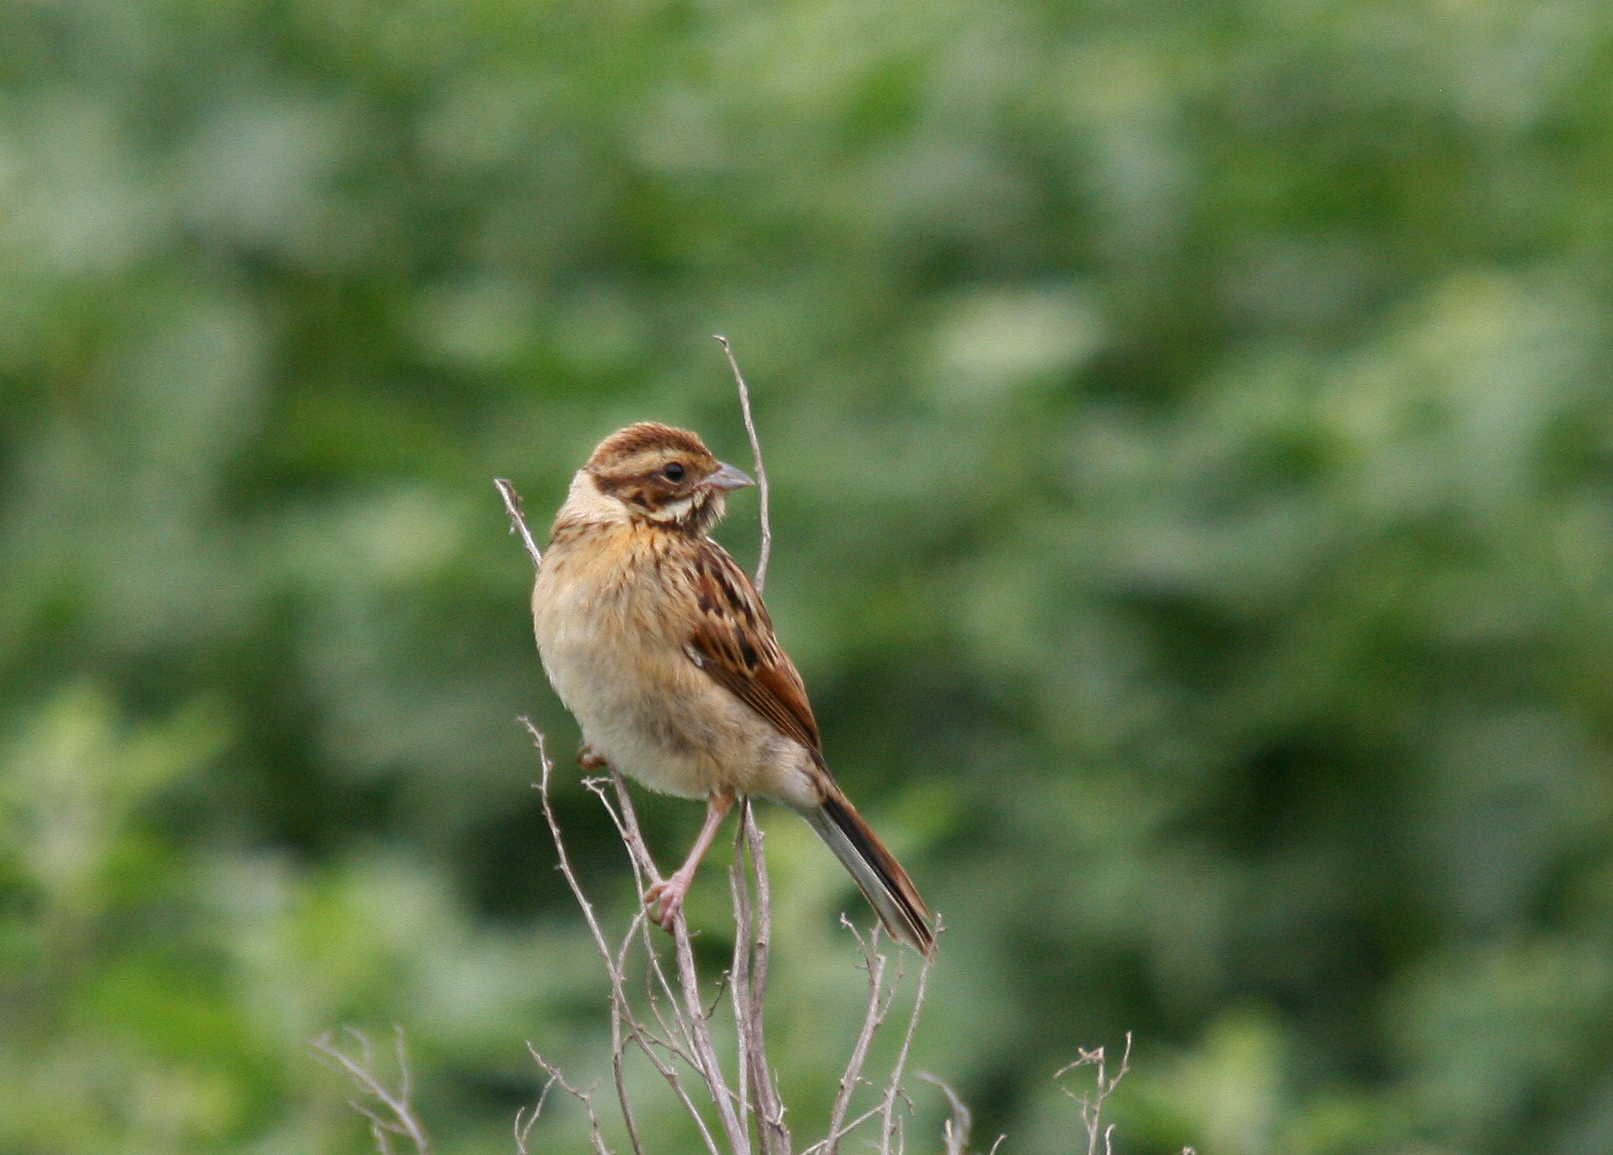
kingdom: Animalia
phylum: Chordata
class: Aves
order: Passeriformes
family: Emberizidae
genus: Emberiza
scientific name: Emberiza schoeniclus
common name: Reed bunting
